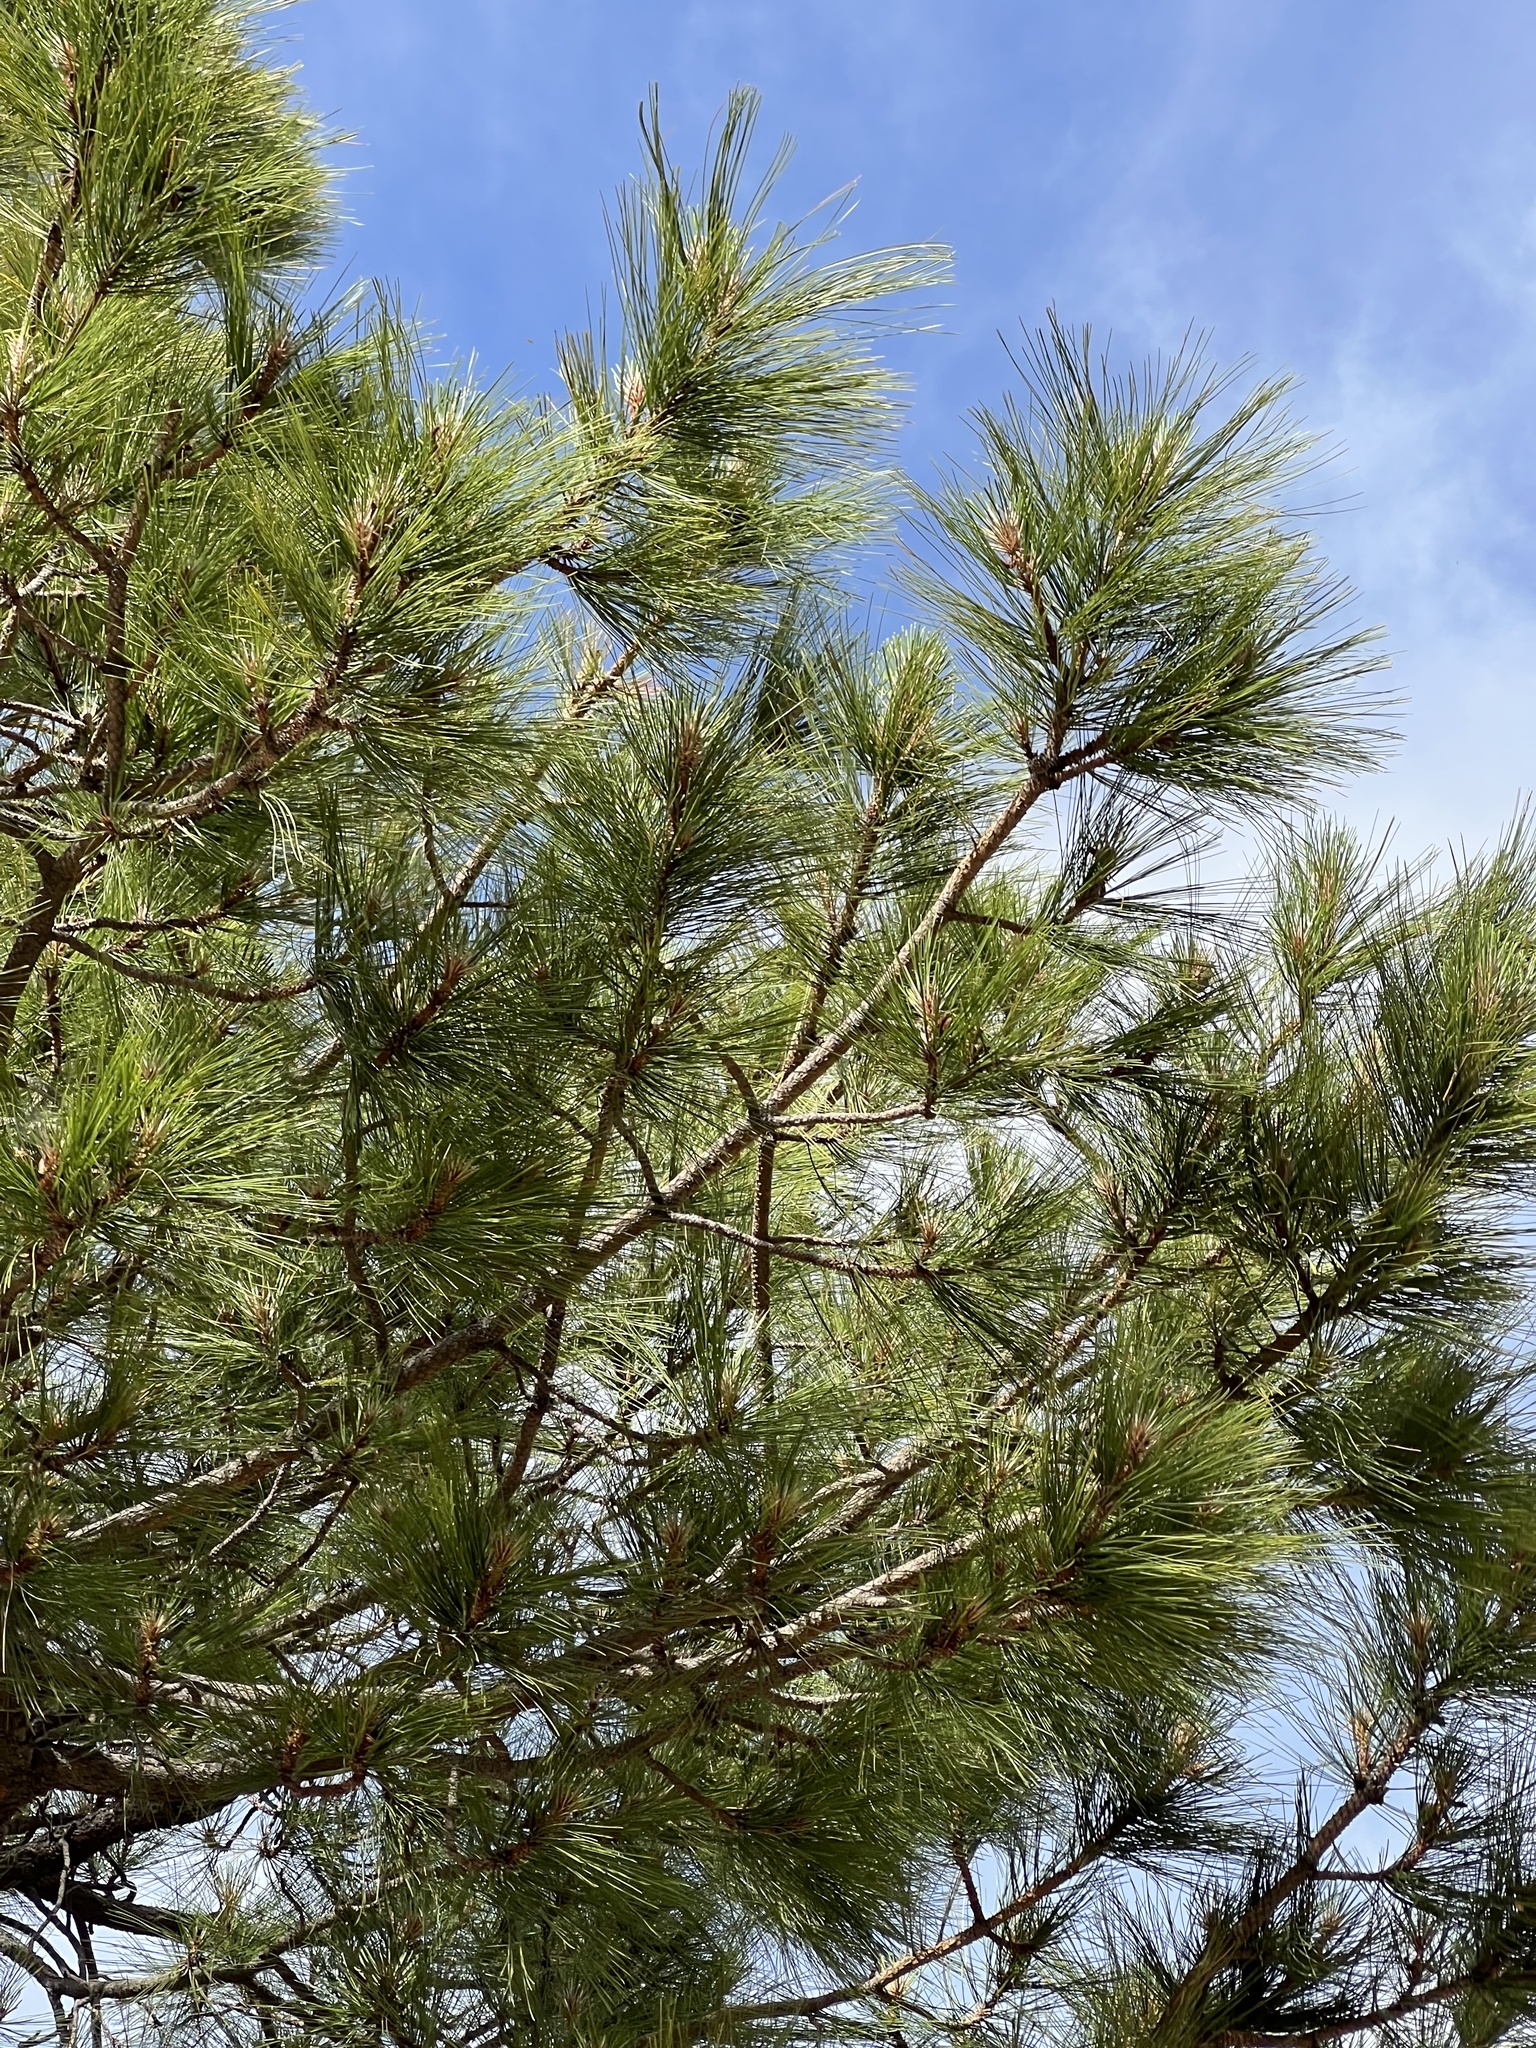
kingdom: Plantae
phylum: Tracheophyta
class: Pinopsida
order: Pinales
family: Pinaceae
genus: Pinus
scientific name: Pinus ponderosa
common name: Western yellow-pine
